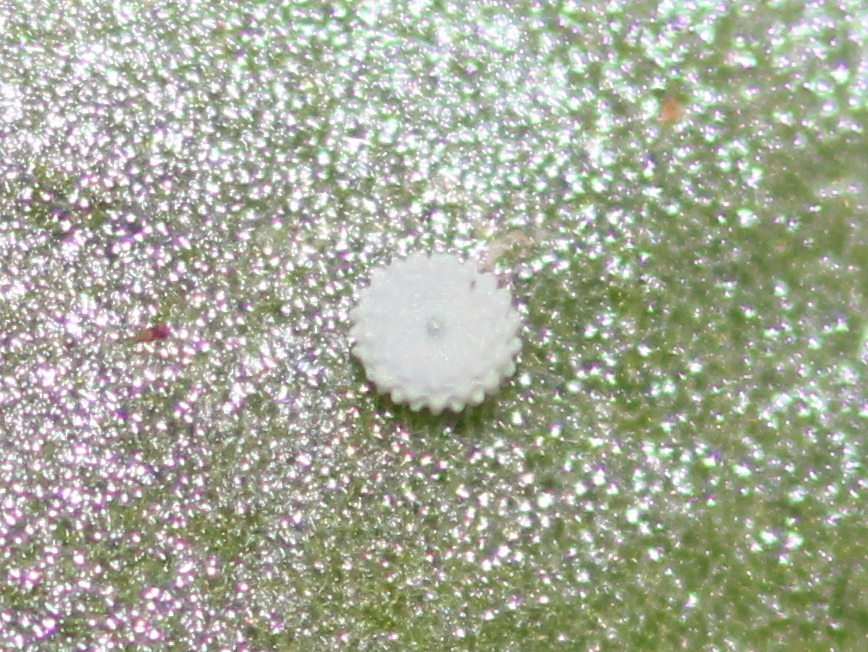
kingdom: Animalia
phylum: Arthropoda
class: Insecta
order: Lepidoptera
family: Lycaenidae
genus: Talicada
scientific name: Talicada nyseus
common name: Red pierrot
